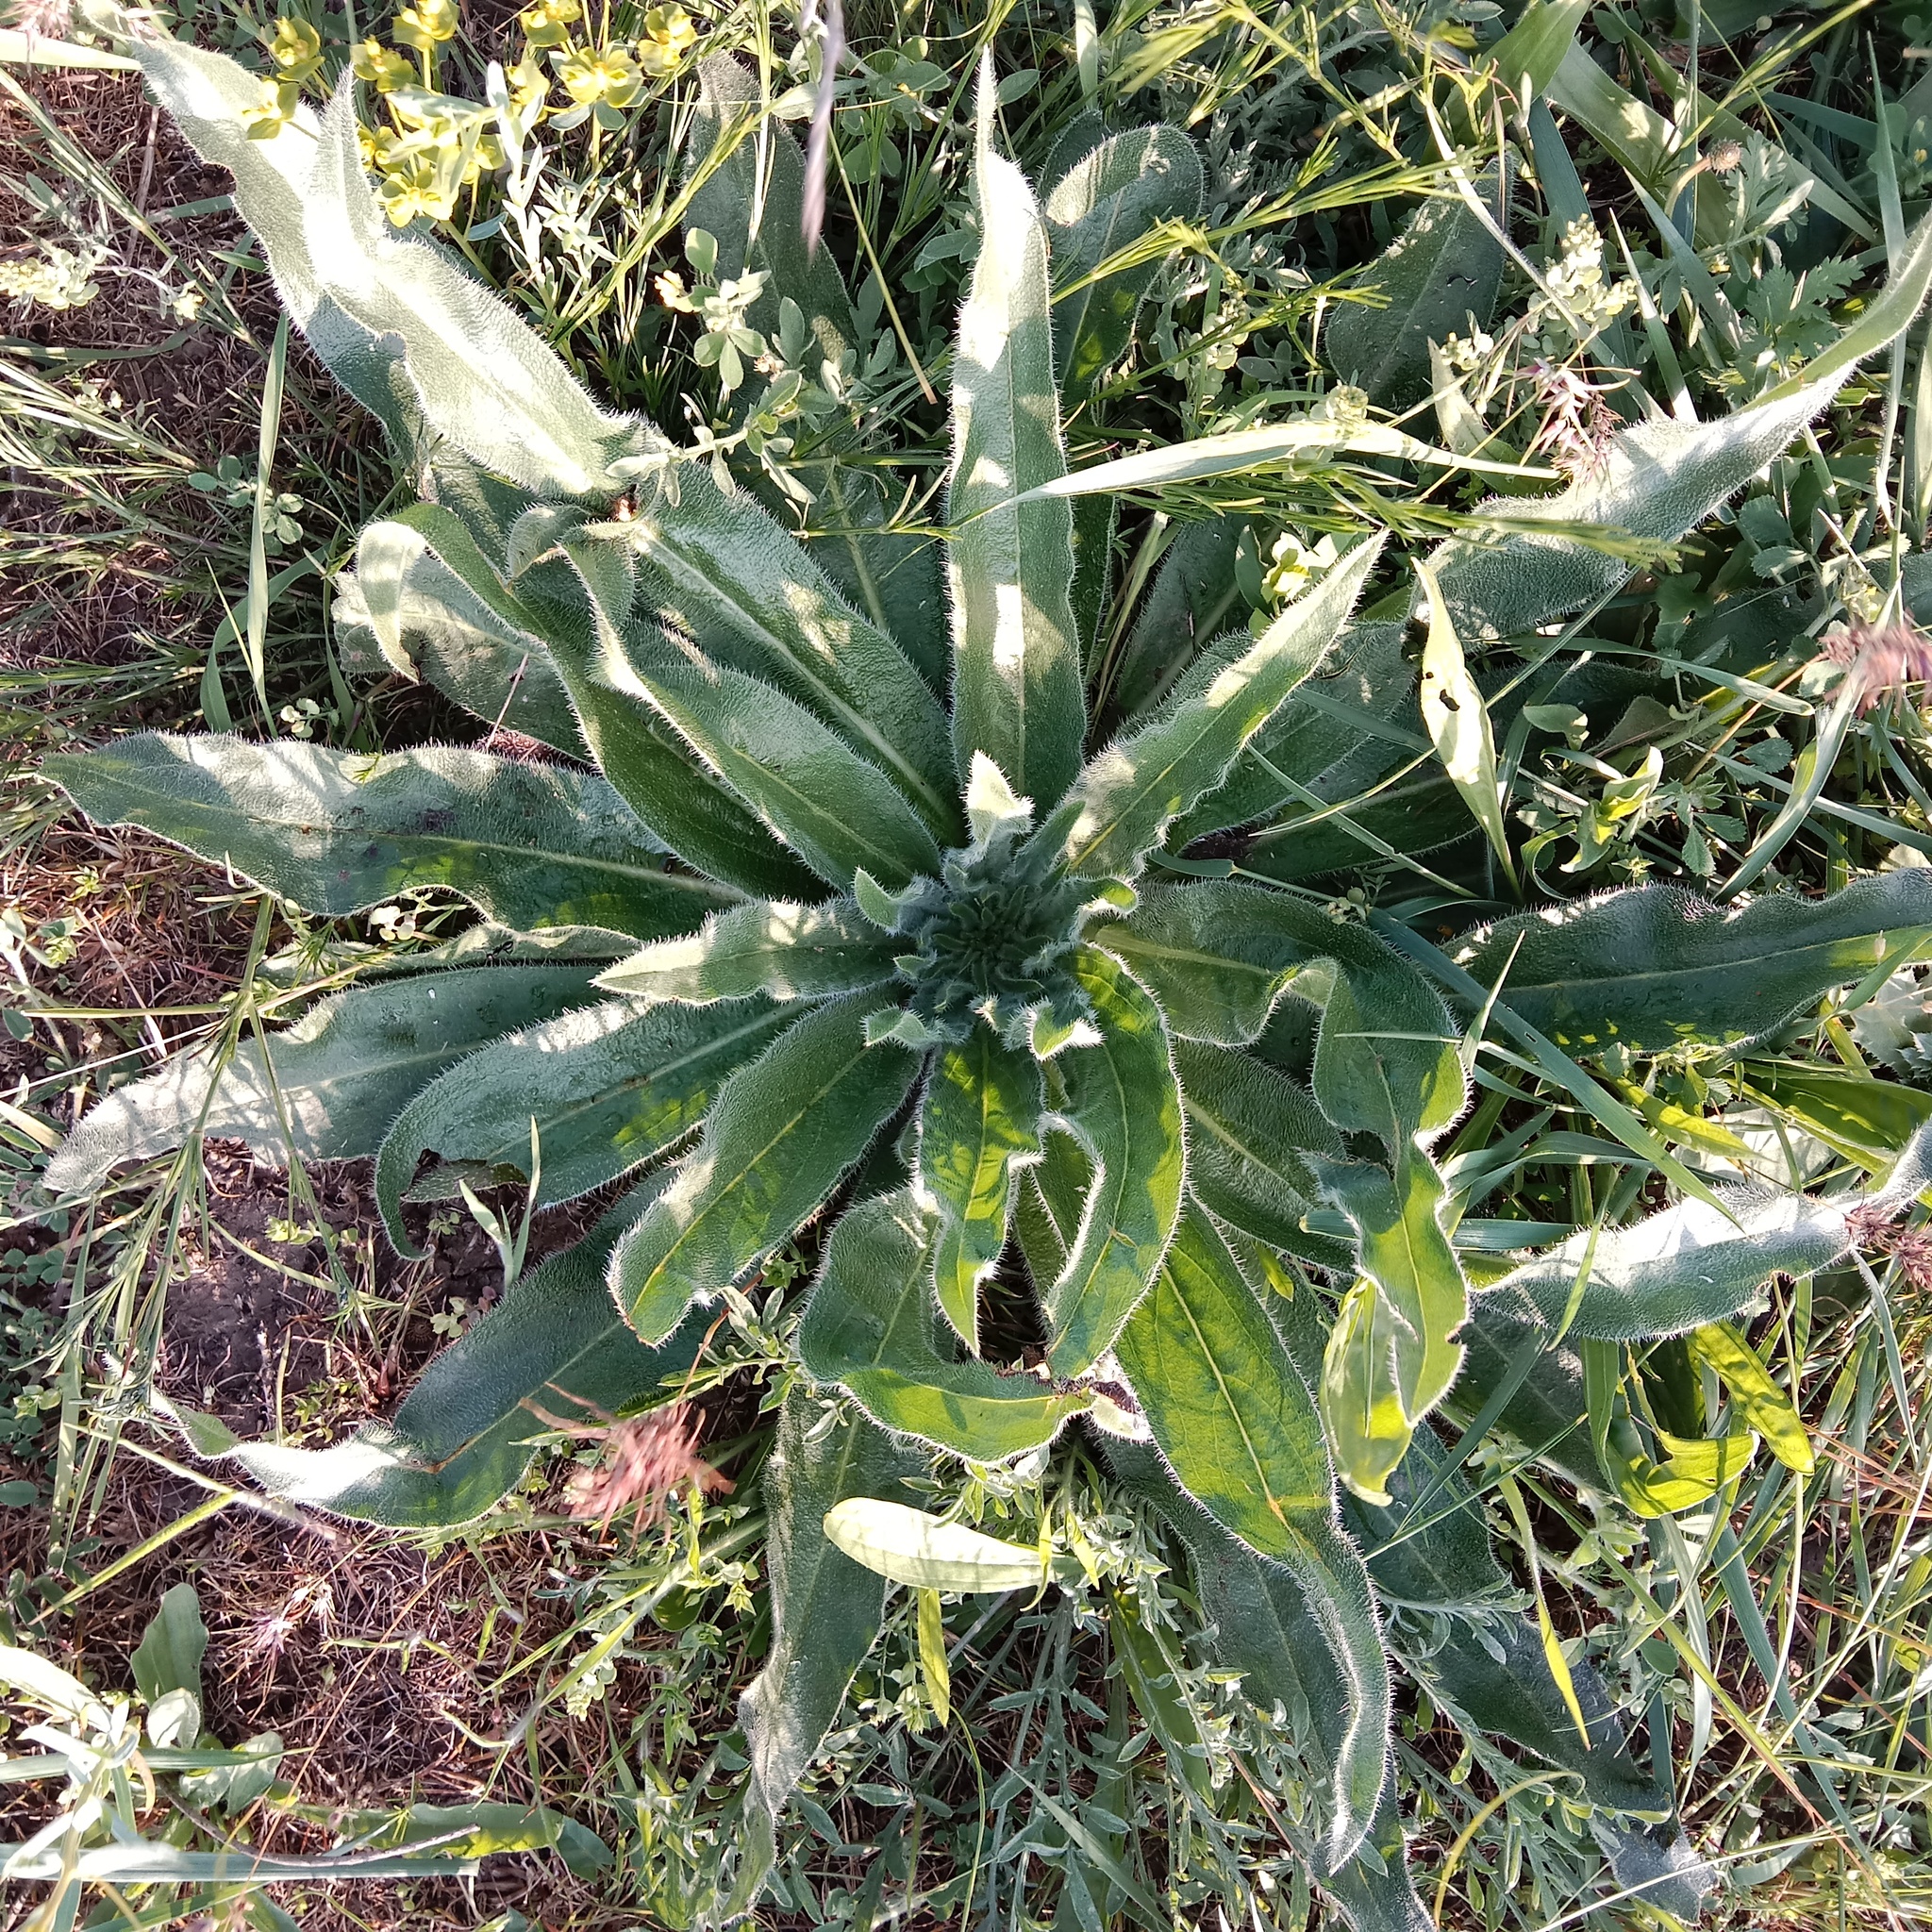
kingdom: Plantae
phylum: Tracheophyta
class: Magnoliopsida
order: Boraginales
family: Boraginaceae
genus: Echium
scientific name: Echium italicum
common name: Italian viper's bugloss
